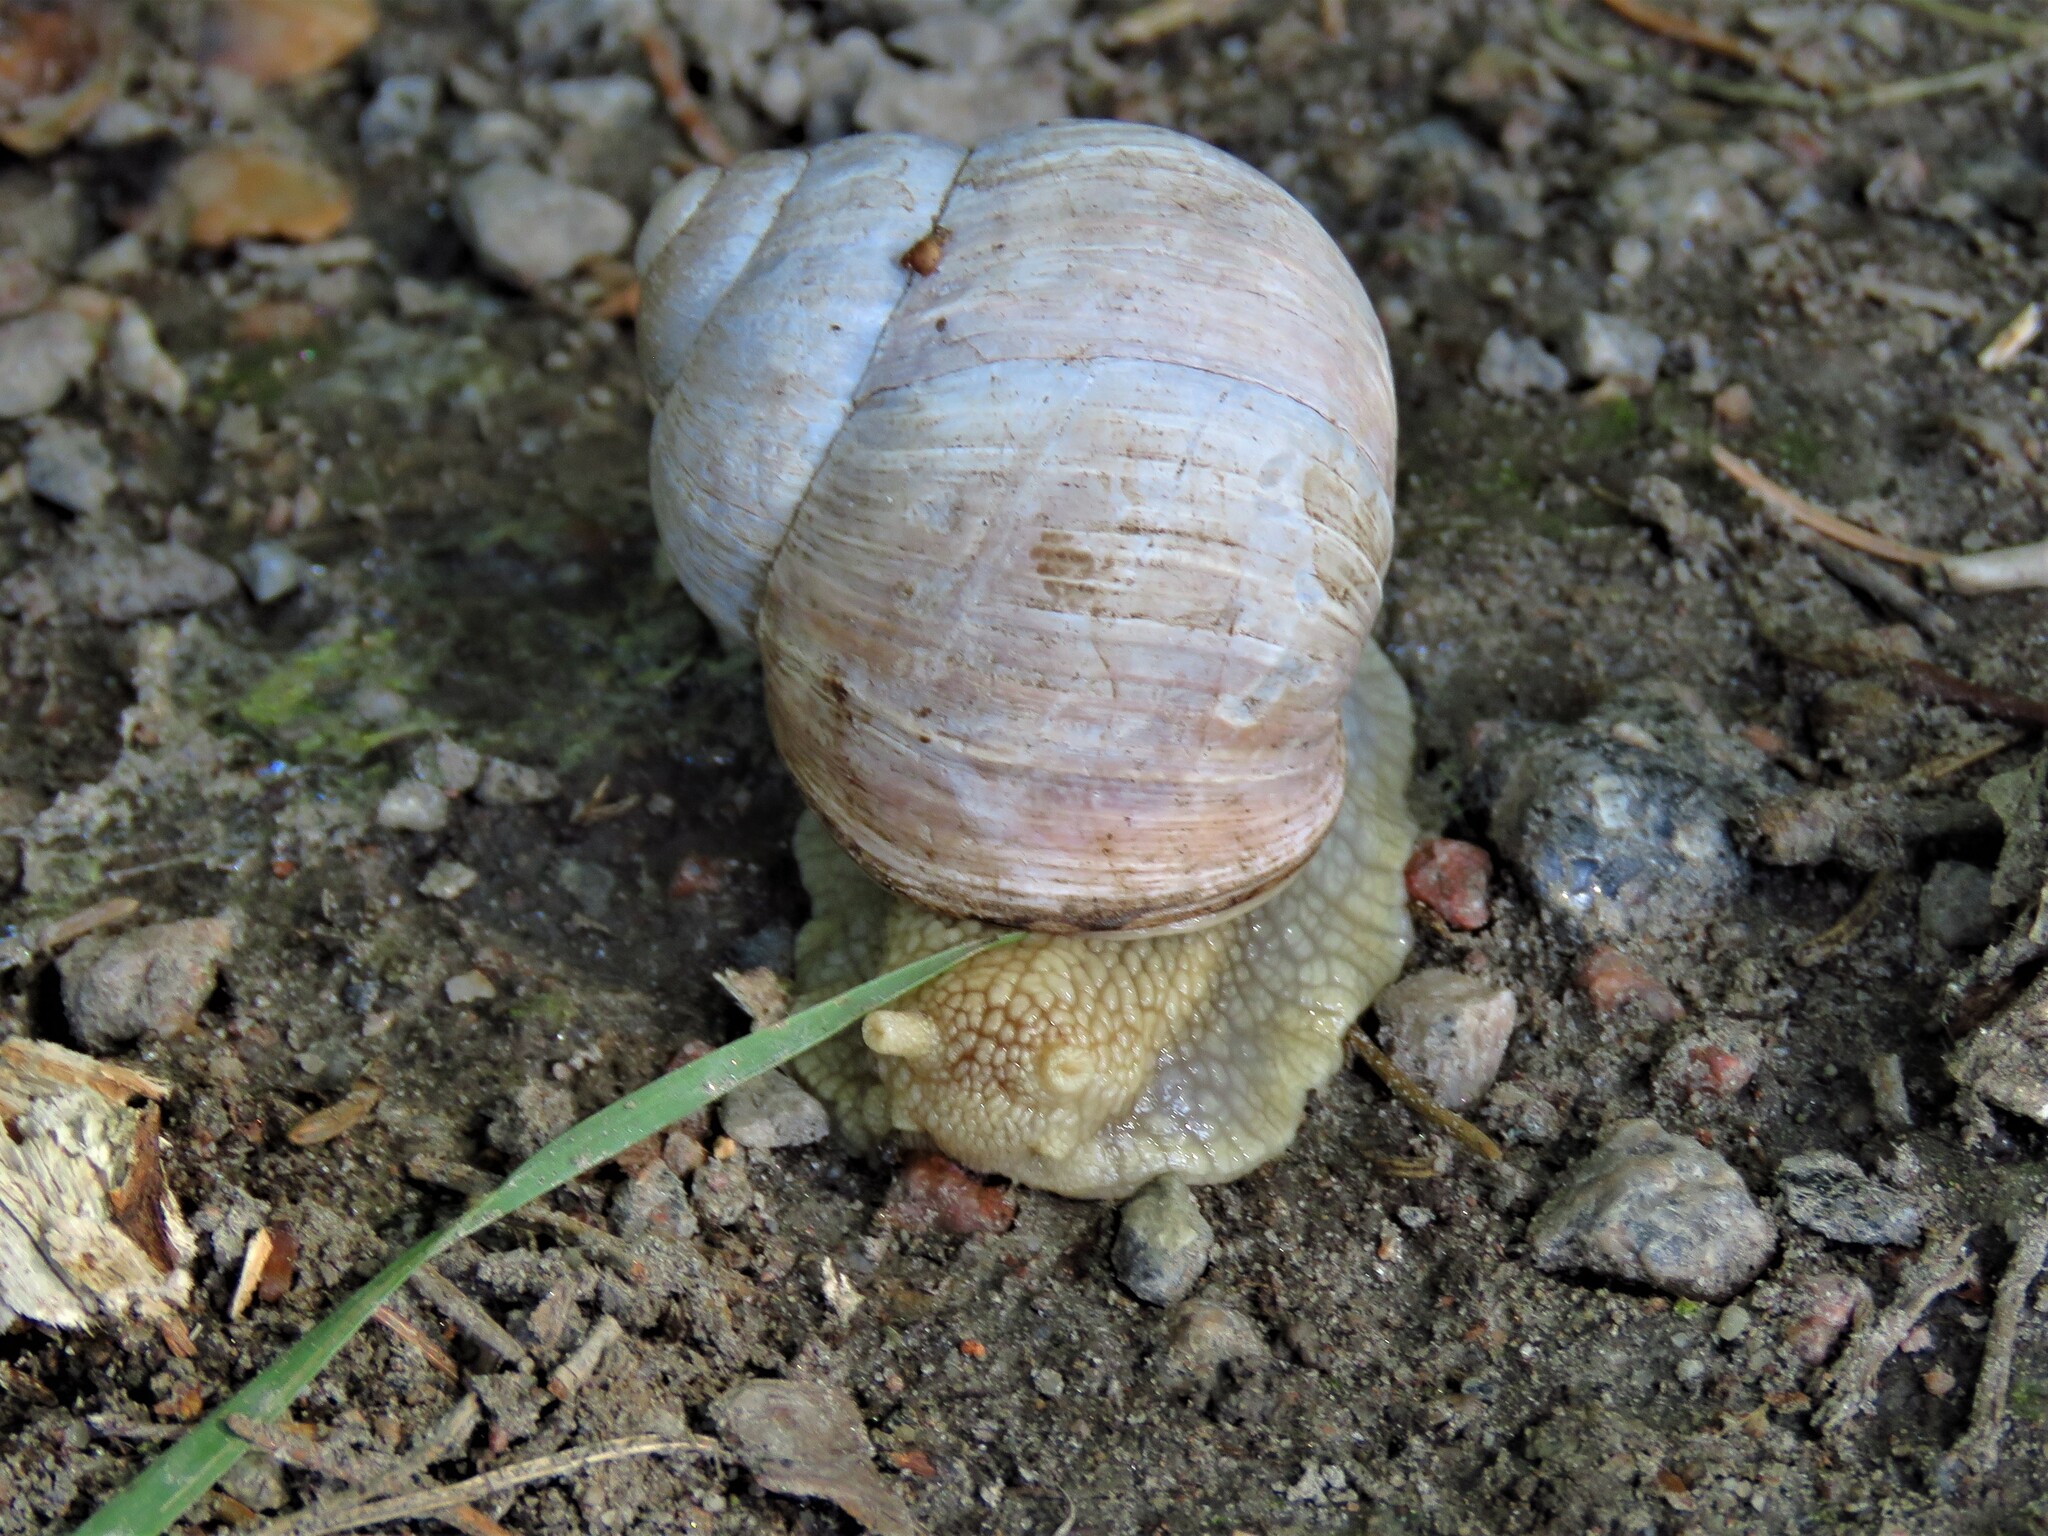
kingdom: Animalia
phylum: Mollusca
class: Gastropoda
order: Stylommatophora
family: Helicidae
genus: Helix
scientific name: Helix pomatia
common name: Roman snail
